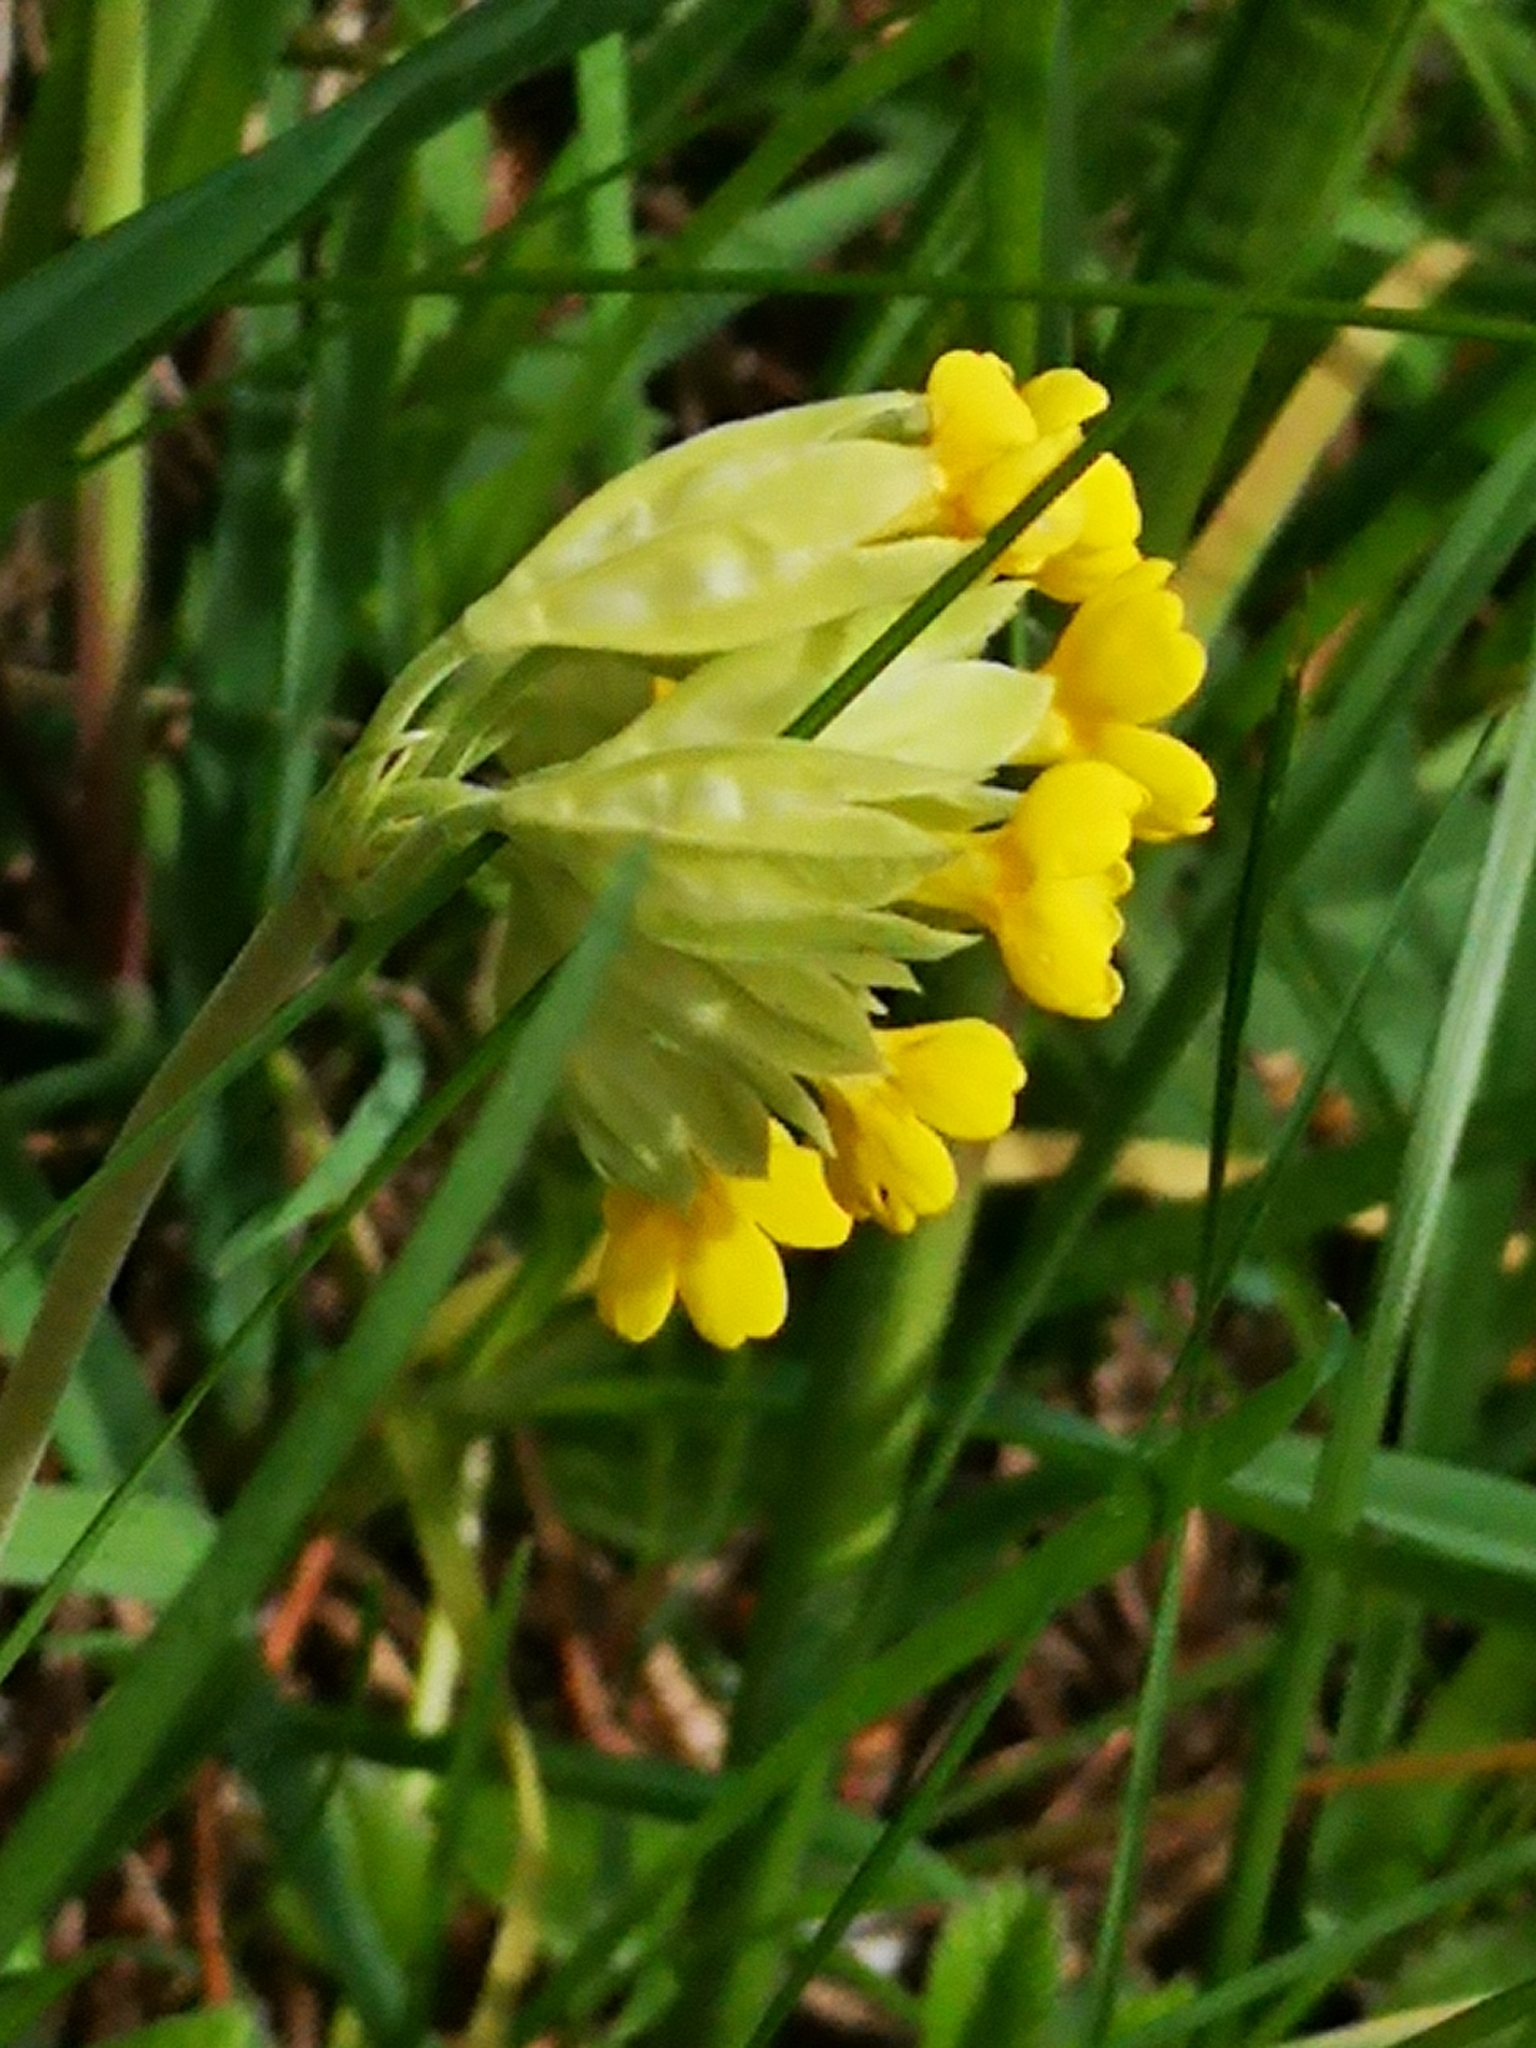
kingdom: Plantae
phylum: Tracheophyta
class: Magnoliopsida
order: Ericales
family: Primulaceae
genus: Primula
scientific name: Primula veris
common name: Cowslip
